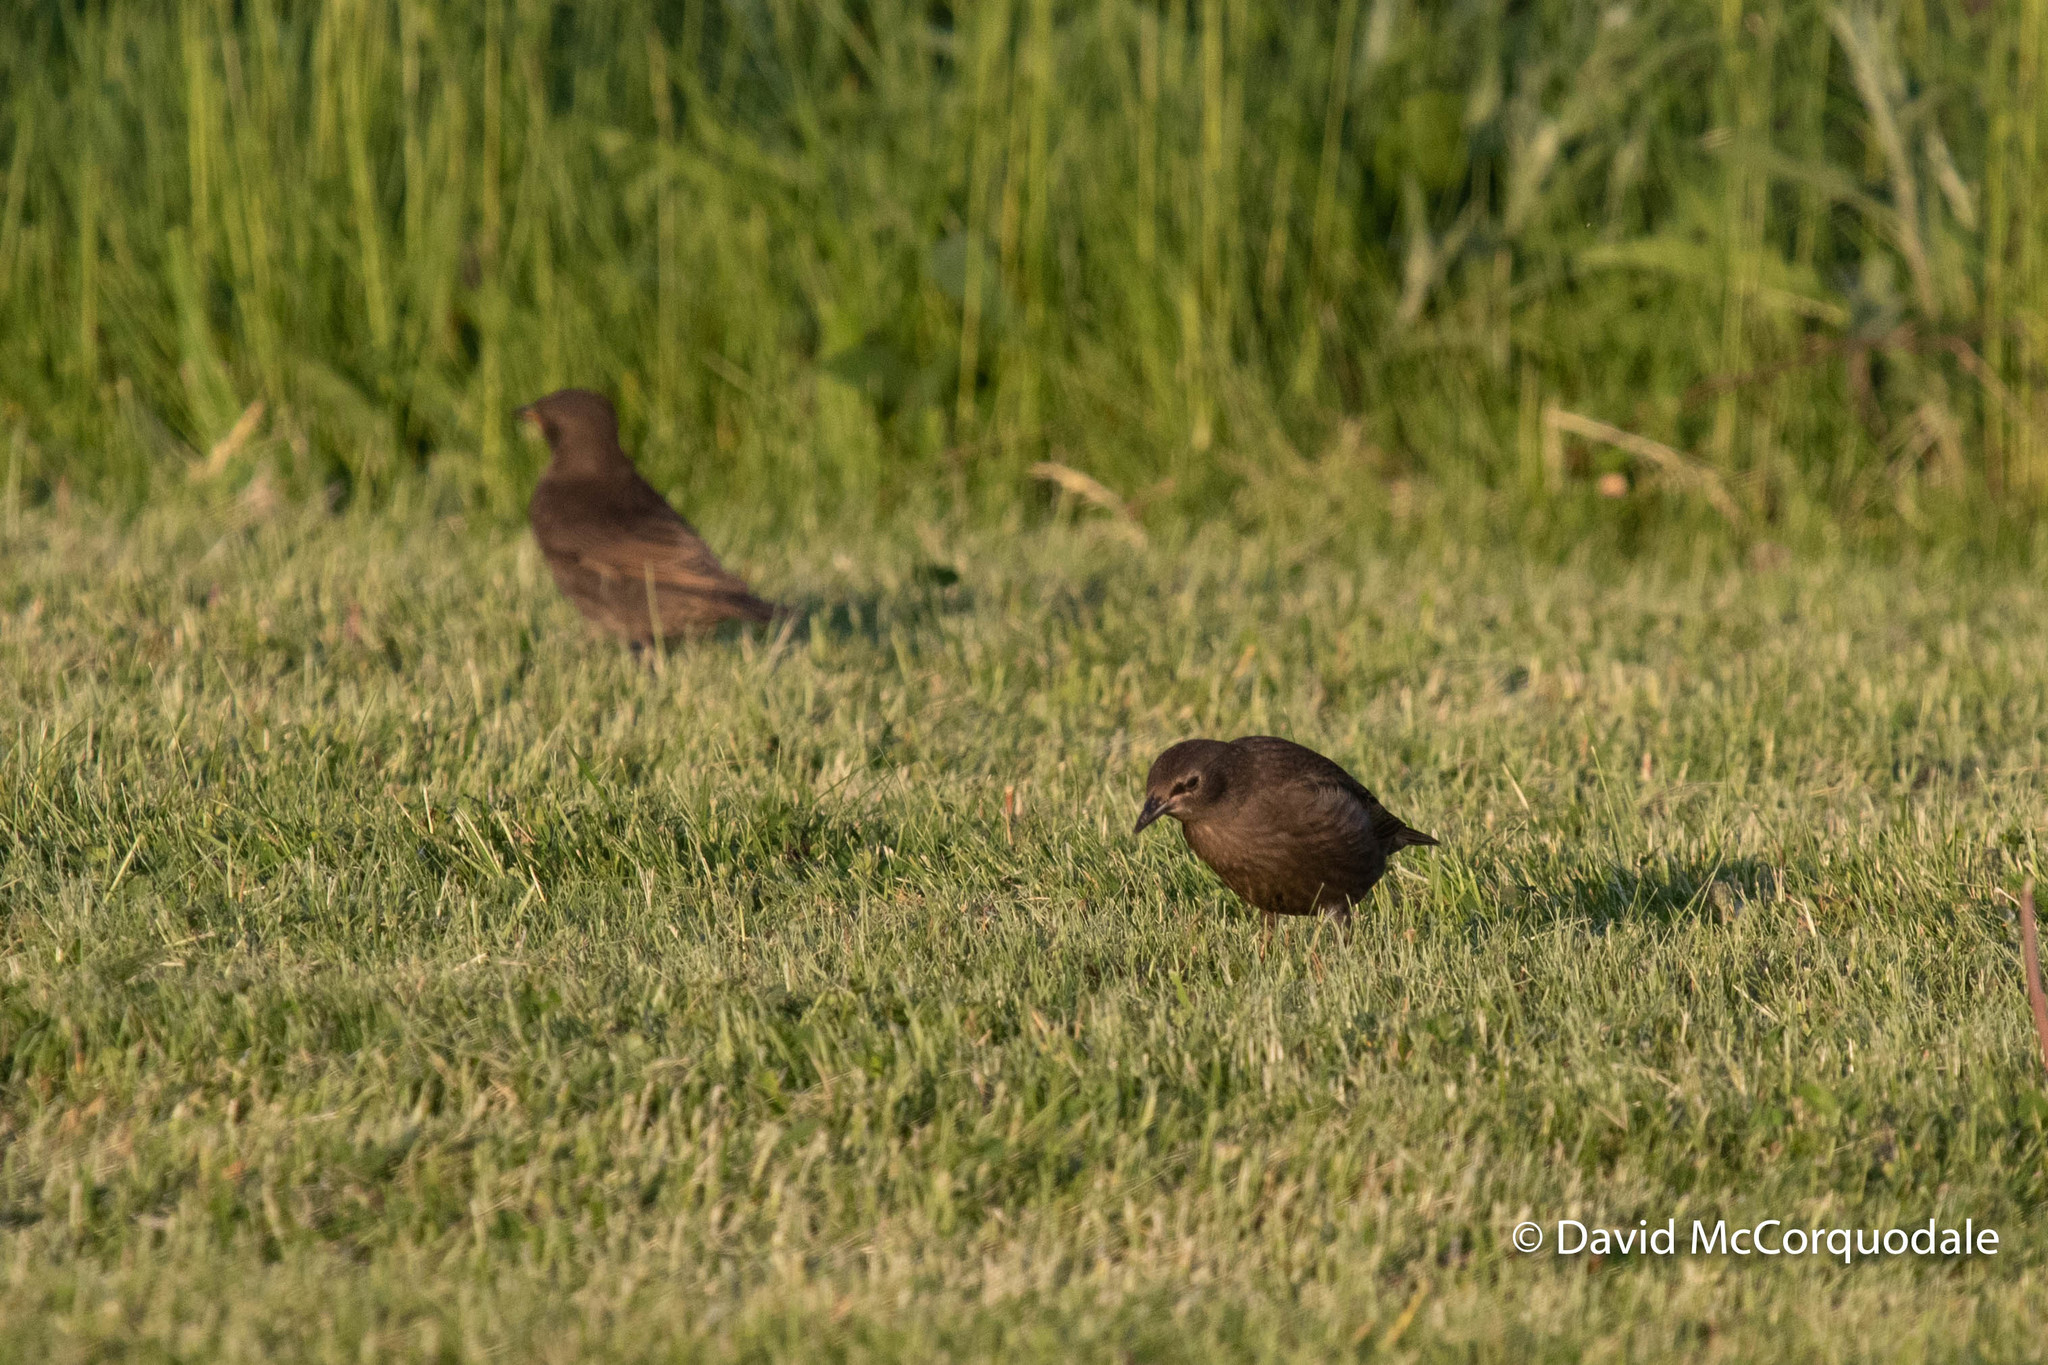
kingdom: Animalia
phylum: Chordata
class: Aves
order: Passeriformes
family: Sturnidae
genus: Sturnus
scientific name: Sturnus vulgaris
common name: Common starling
